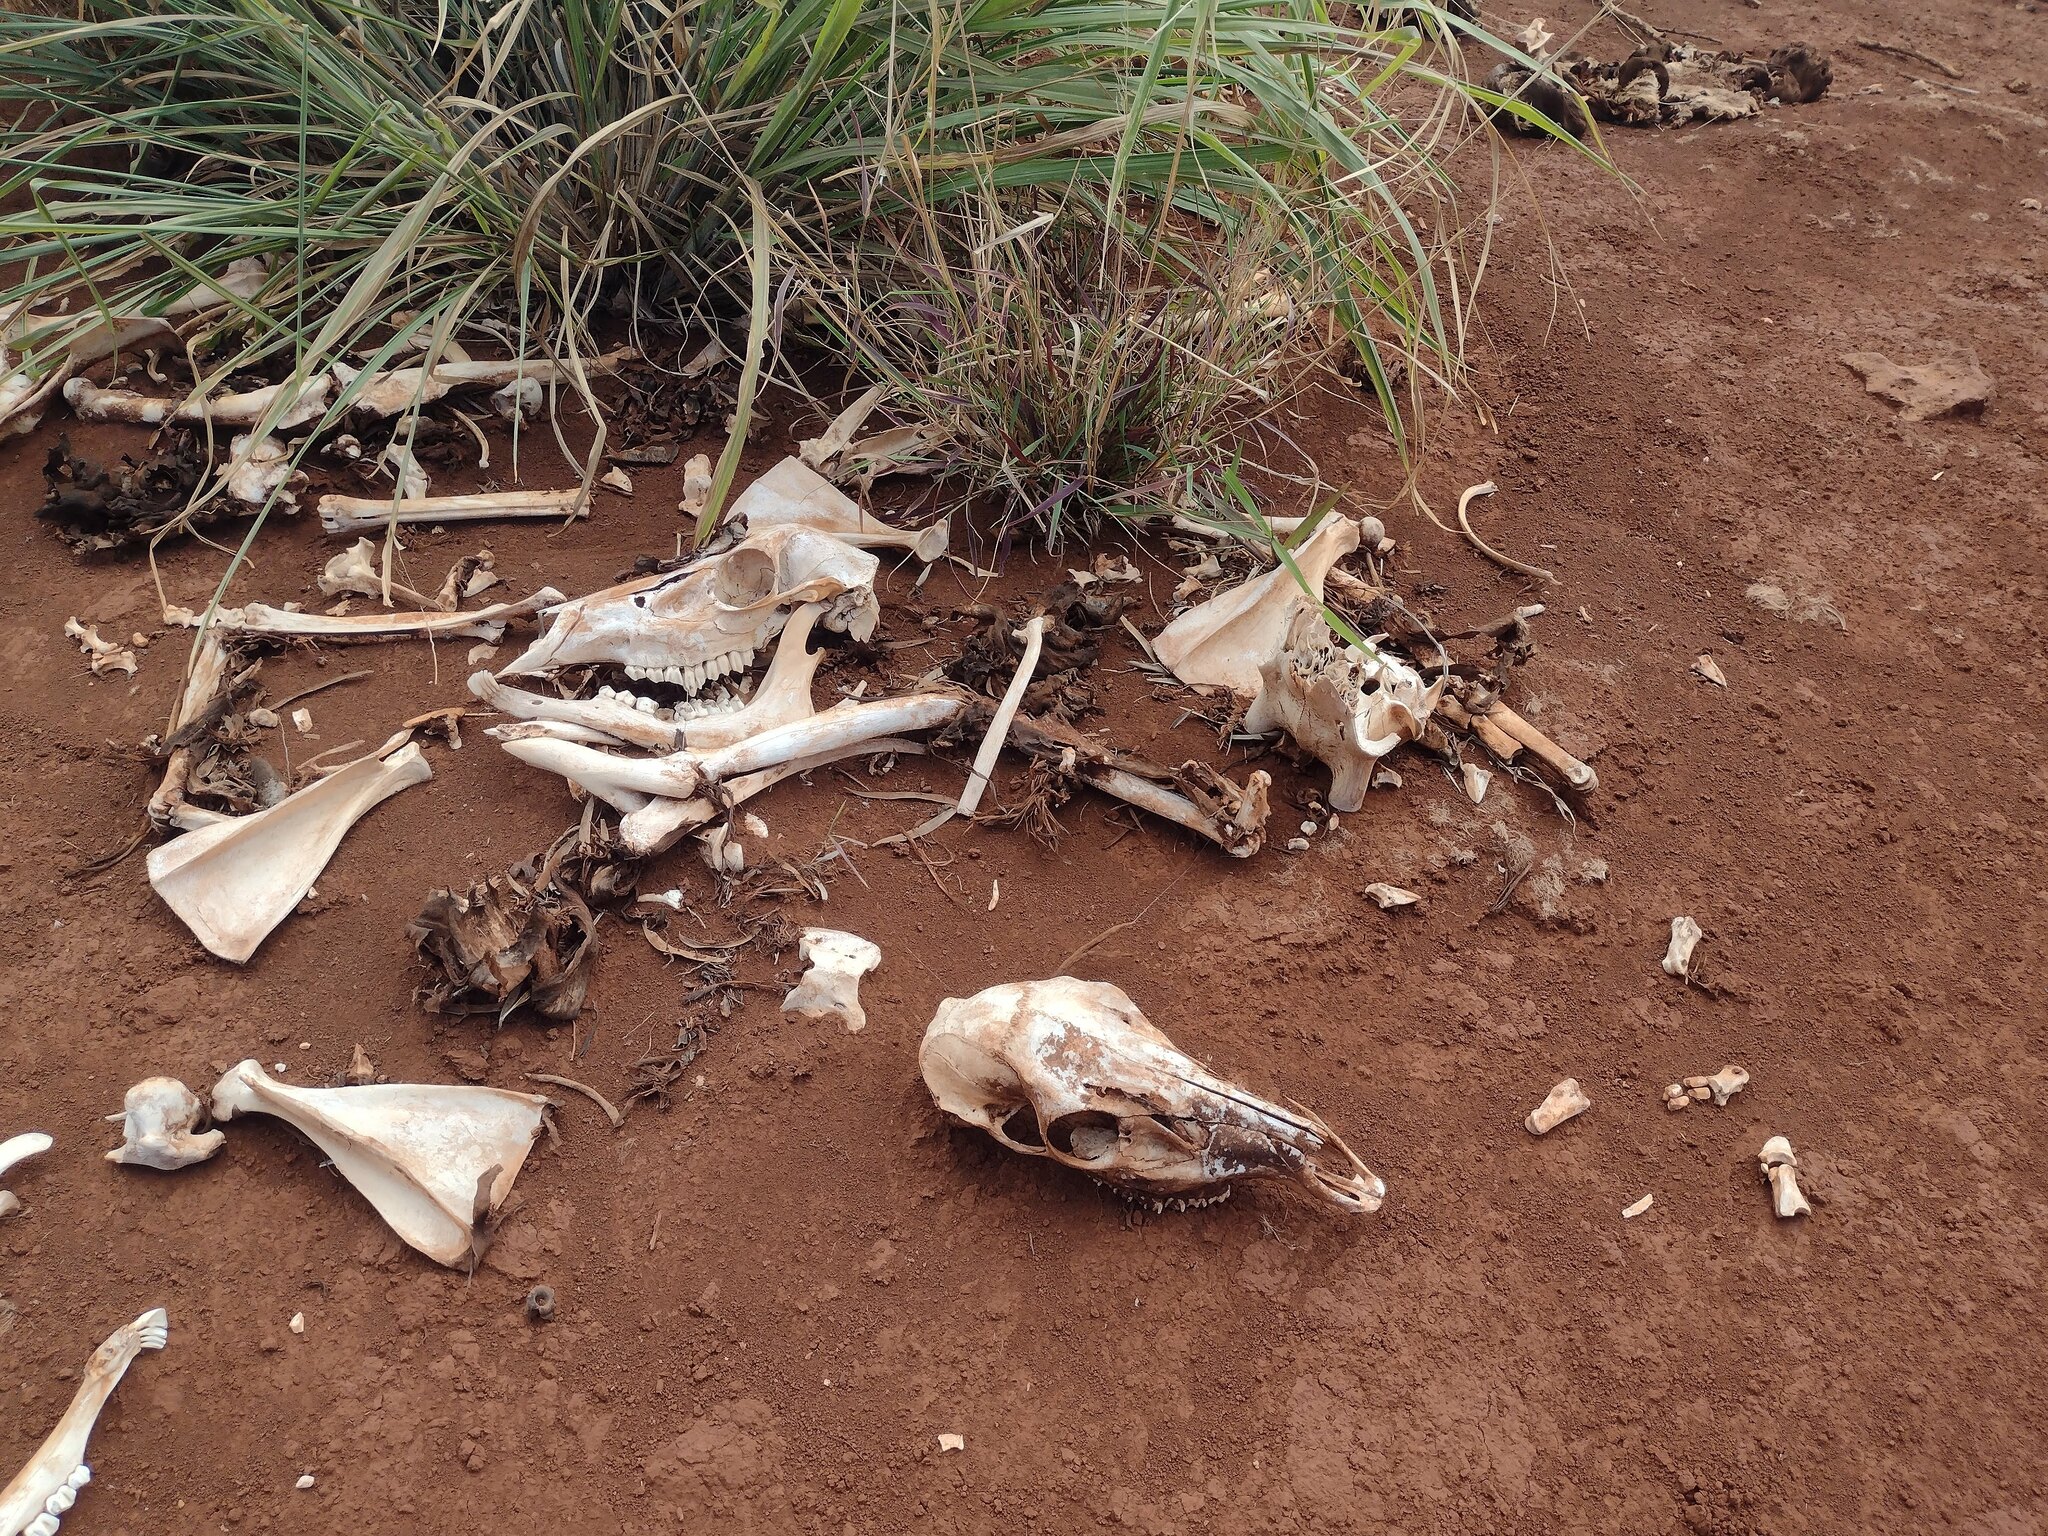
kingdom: Animalia
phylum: Chordata
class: Mammalia
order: Artiodactyla
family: Cervidae
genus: Axis
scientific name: Axis axis
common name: Chital
